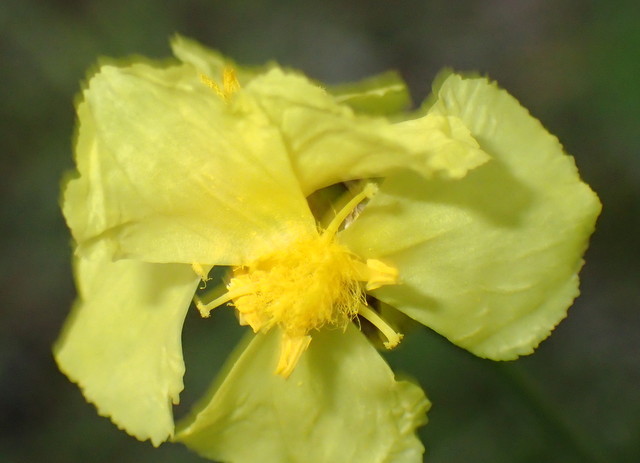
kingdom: Plantae
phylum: Tracheophyta
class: Liliopsida
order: Poales
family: Xyridaceae
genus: Xyris
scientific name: Xyris ambigua
